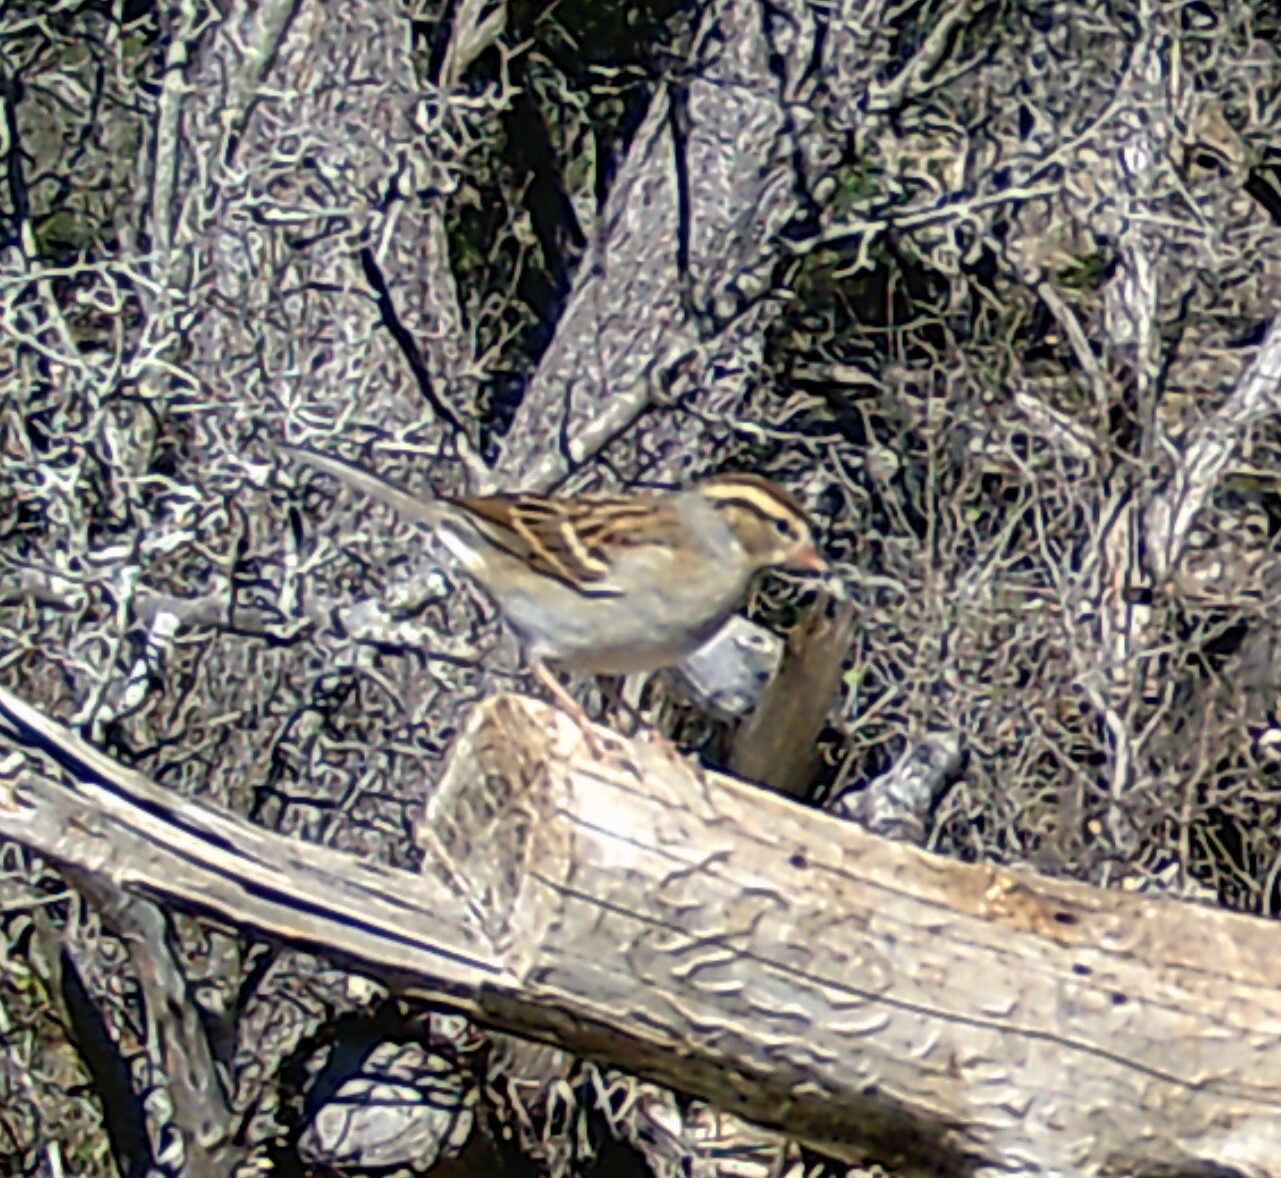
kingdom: Animalia
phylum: Chordata
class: Aves
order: Passeriformes
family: Passerellidae
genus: Spizella
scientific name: Spizella passerina
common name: Chipping sparrow
